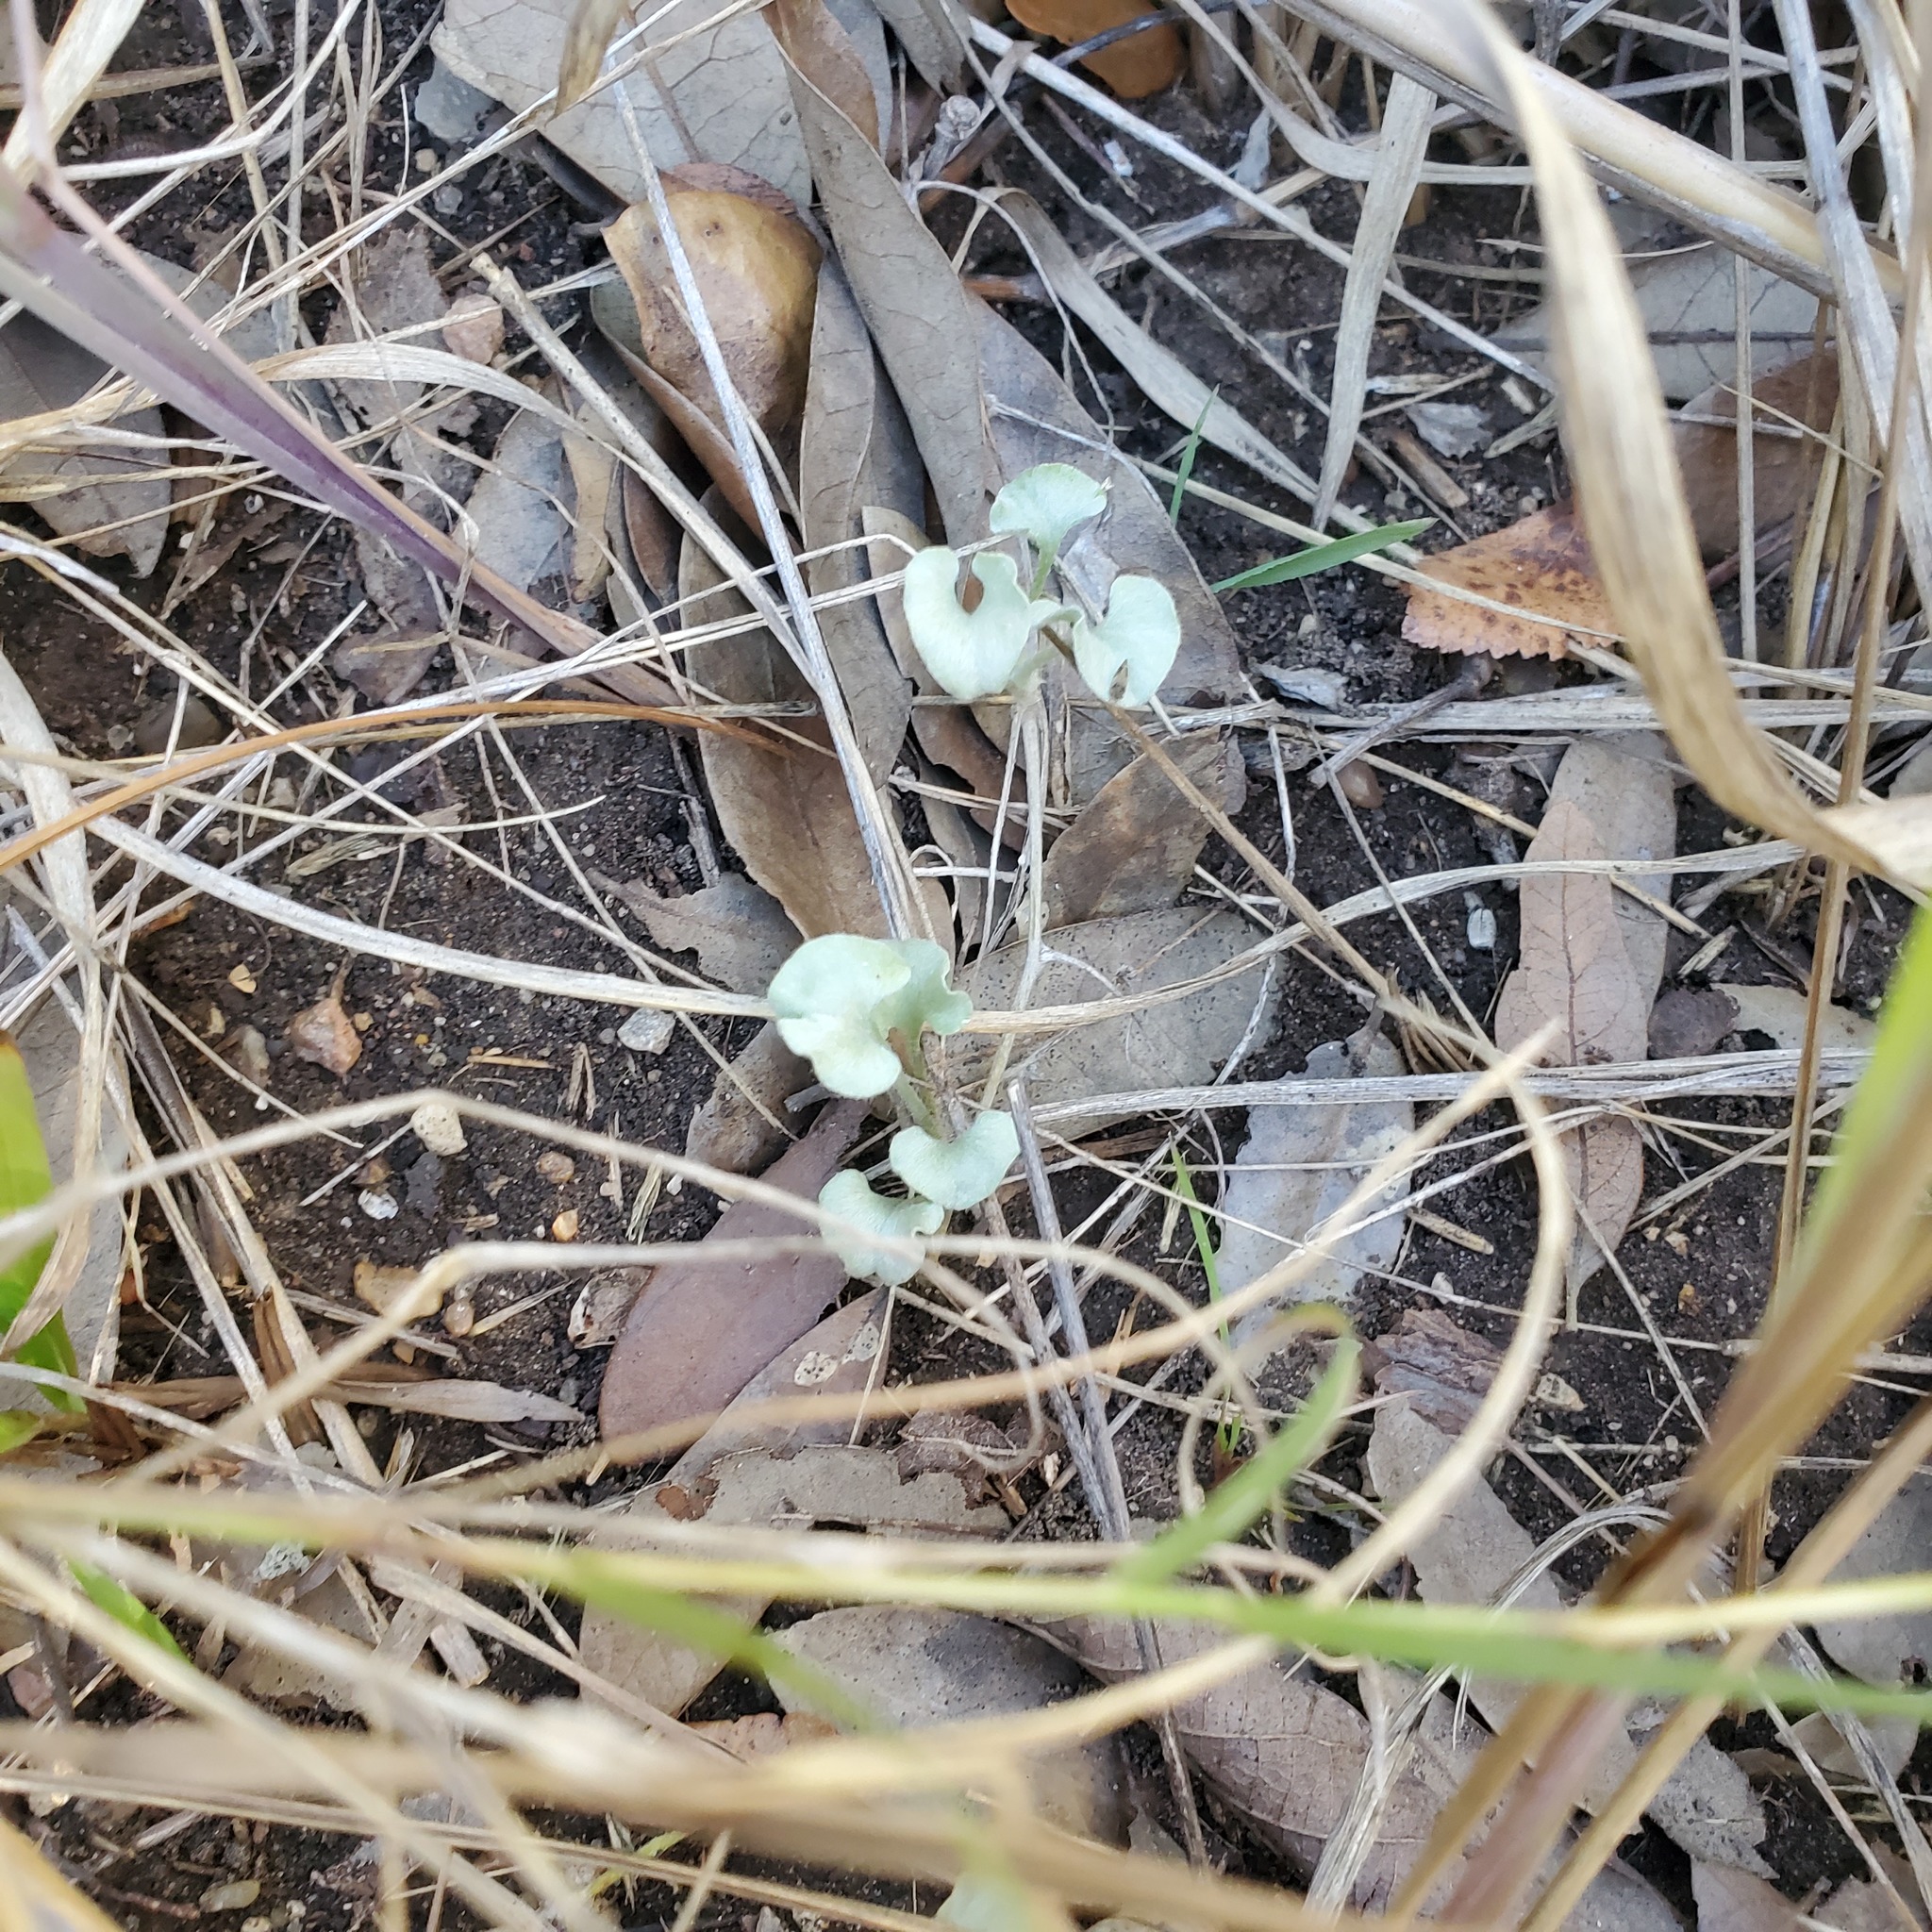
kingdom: Plantae
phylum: Tracheophyta
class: Magnoliopsida
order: Solanales
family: Convolvulaceae
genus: Dichondra
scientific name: Dichondra argentea
